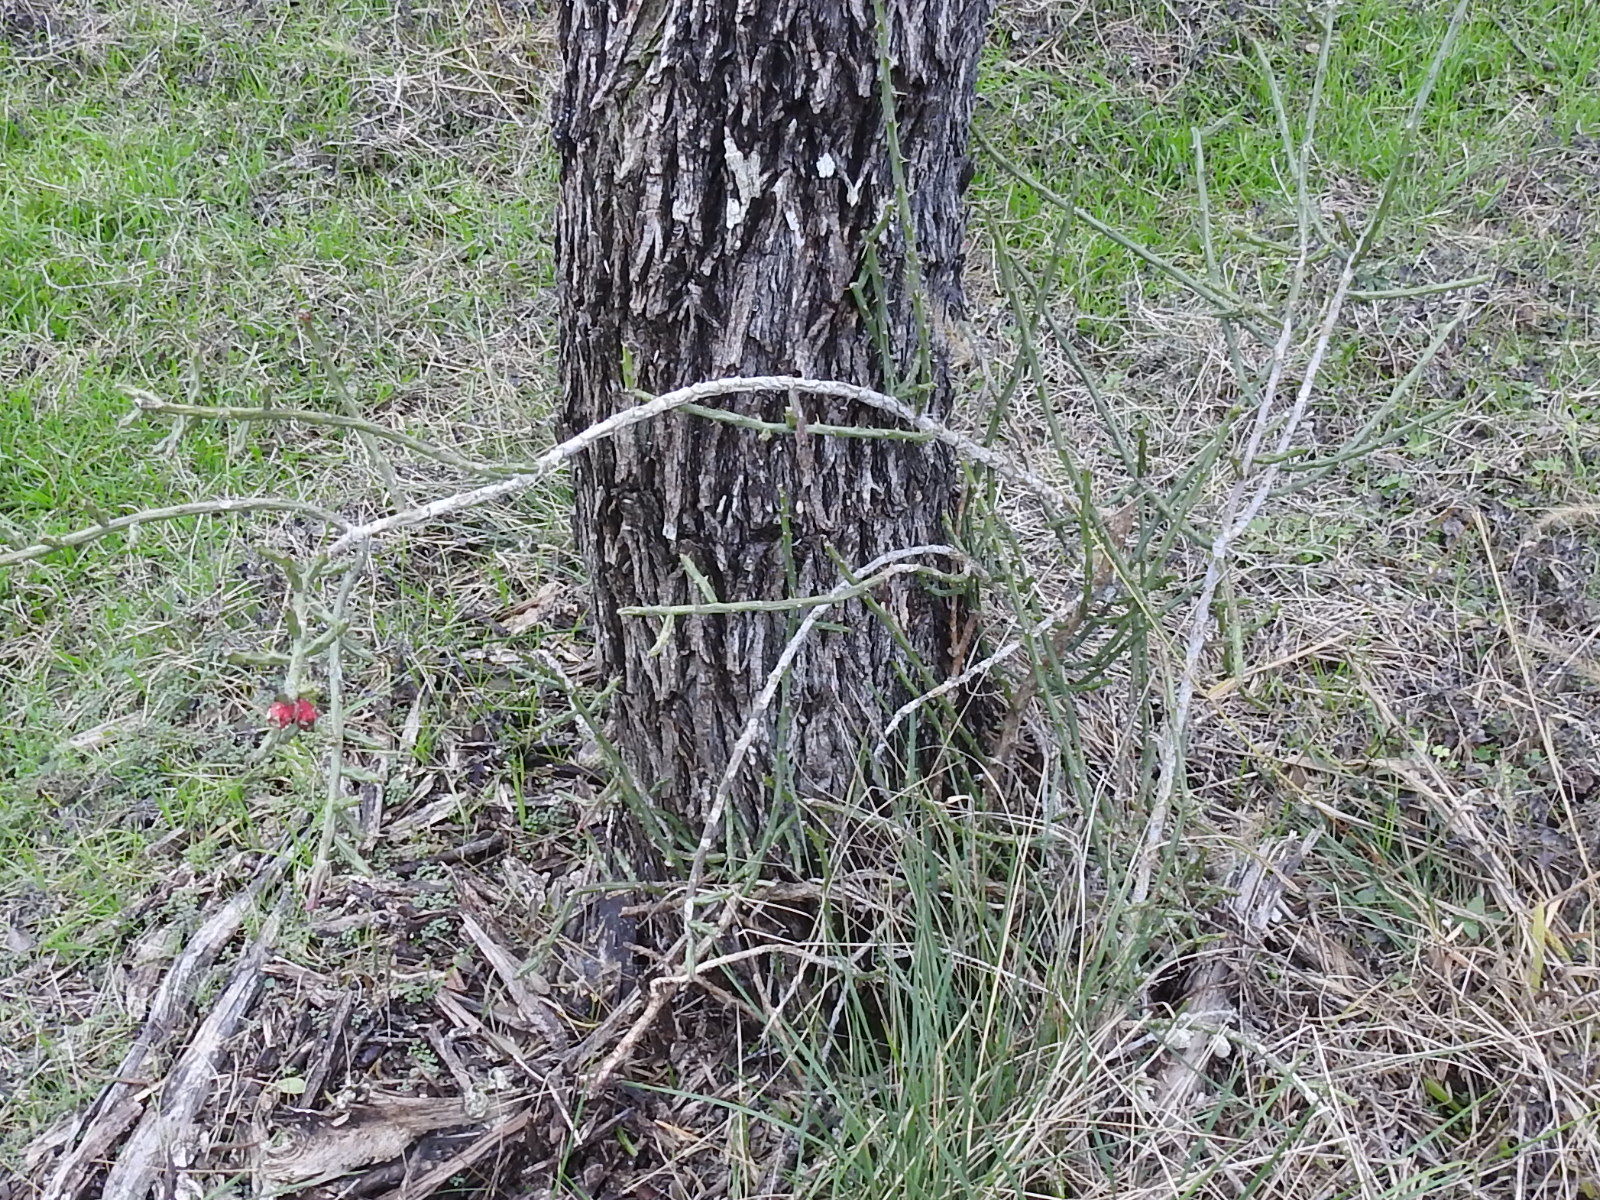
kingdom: Plantae
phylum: Tracheophyta
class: Magnoliopsida
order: Caryophyllales
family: Cactaceae
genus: Cylindropuntia
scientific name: Cylindropuntia leptocaulis
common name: Christmas cactus
